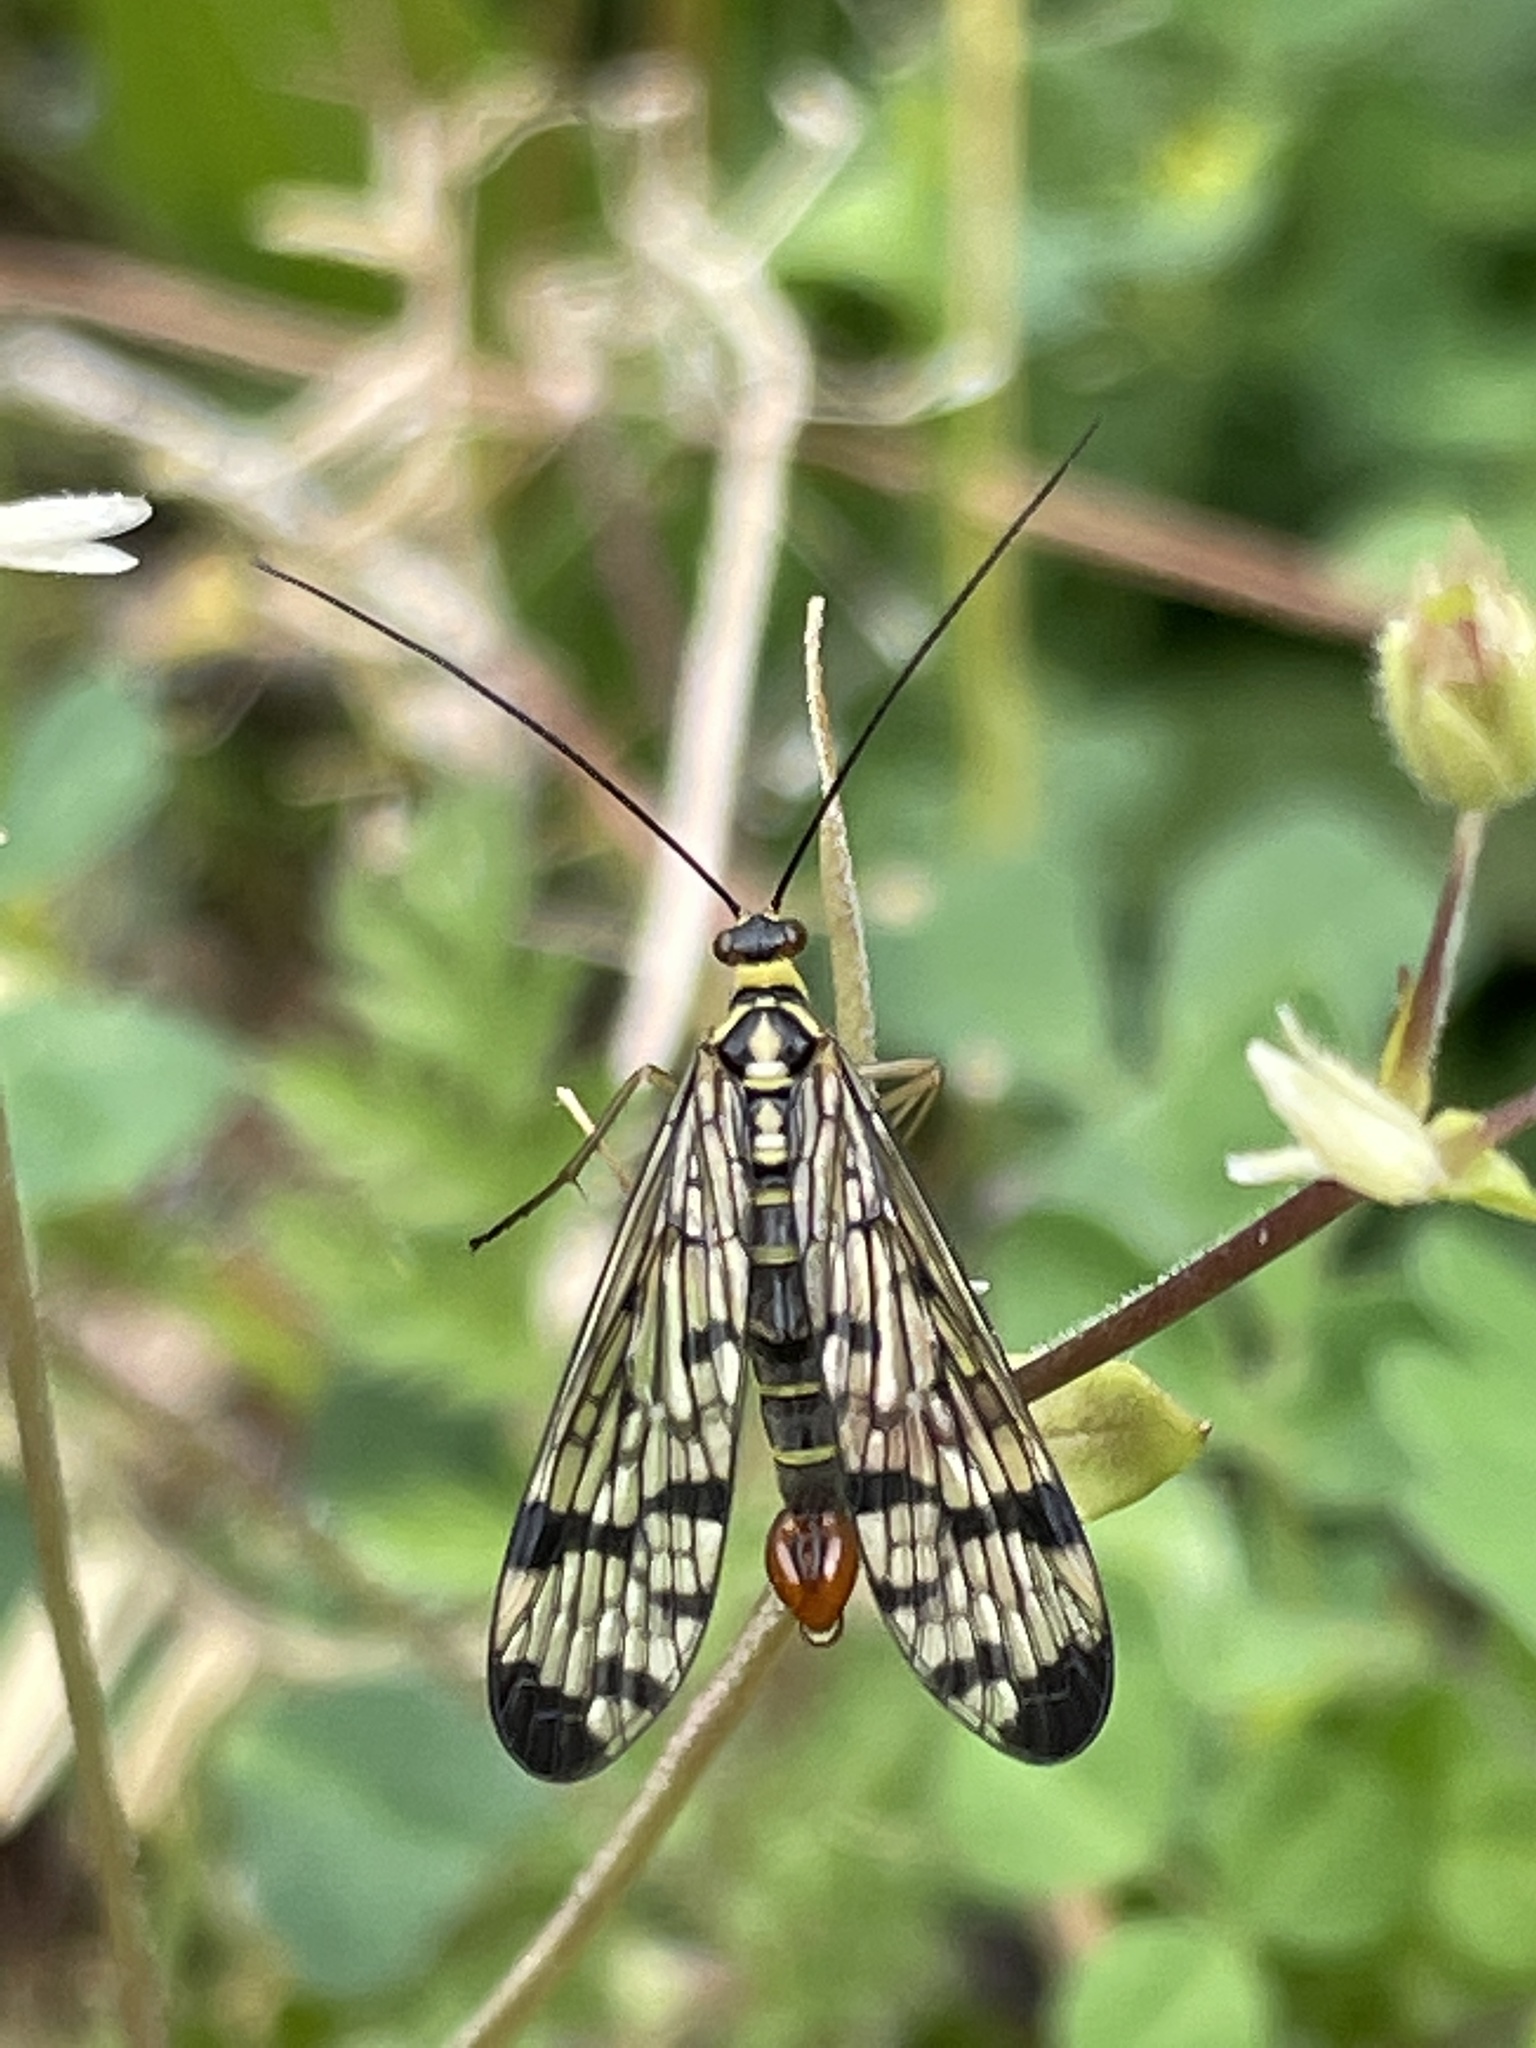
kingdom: Animalia
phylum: Arthropoda
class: Insecta
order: Mecoptera
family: Panorpidae
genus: Panorpa
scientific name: Panorpa communis
